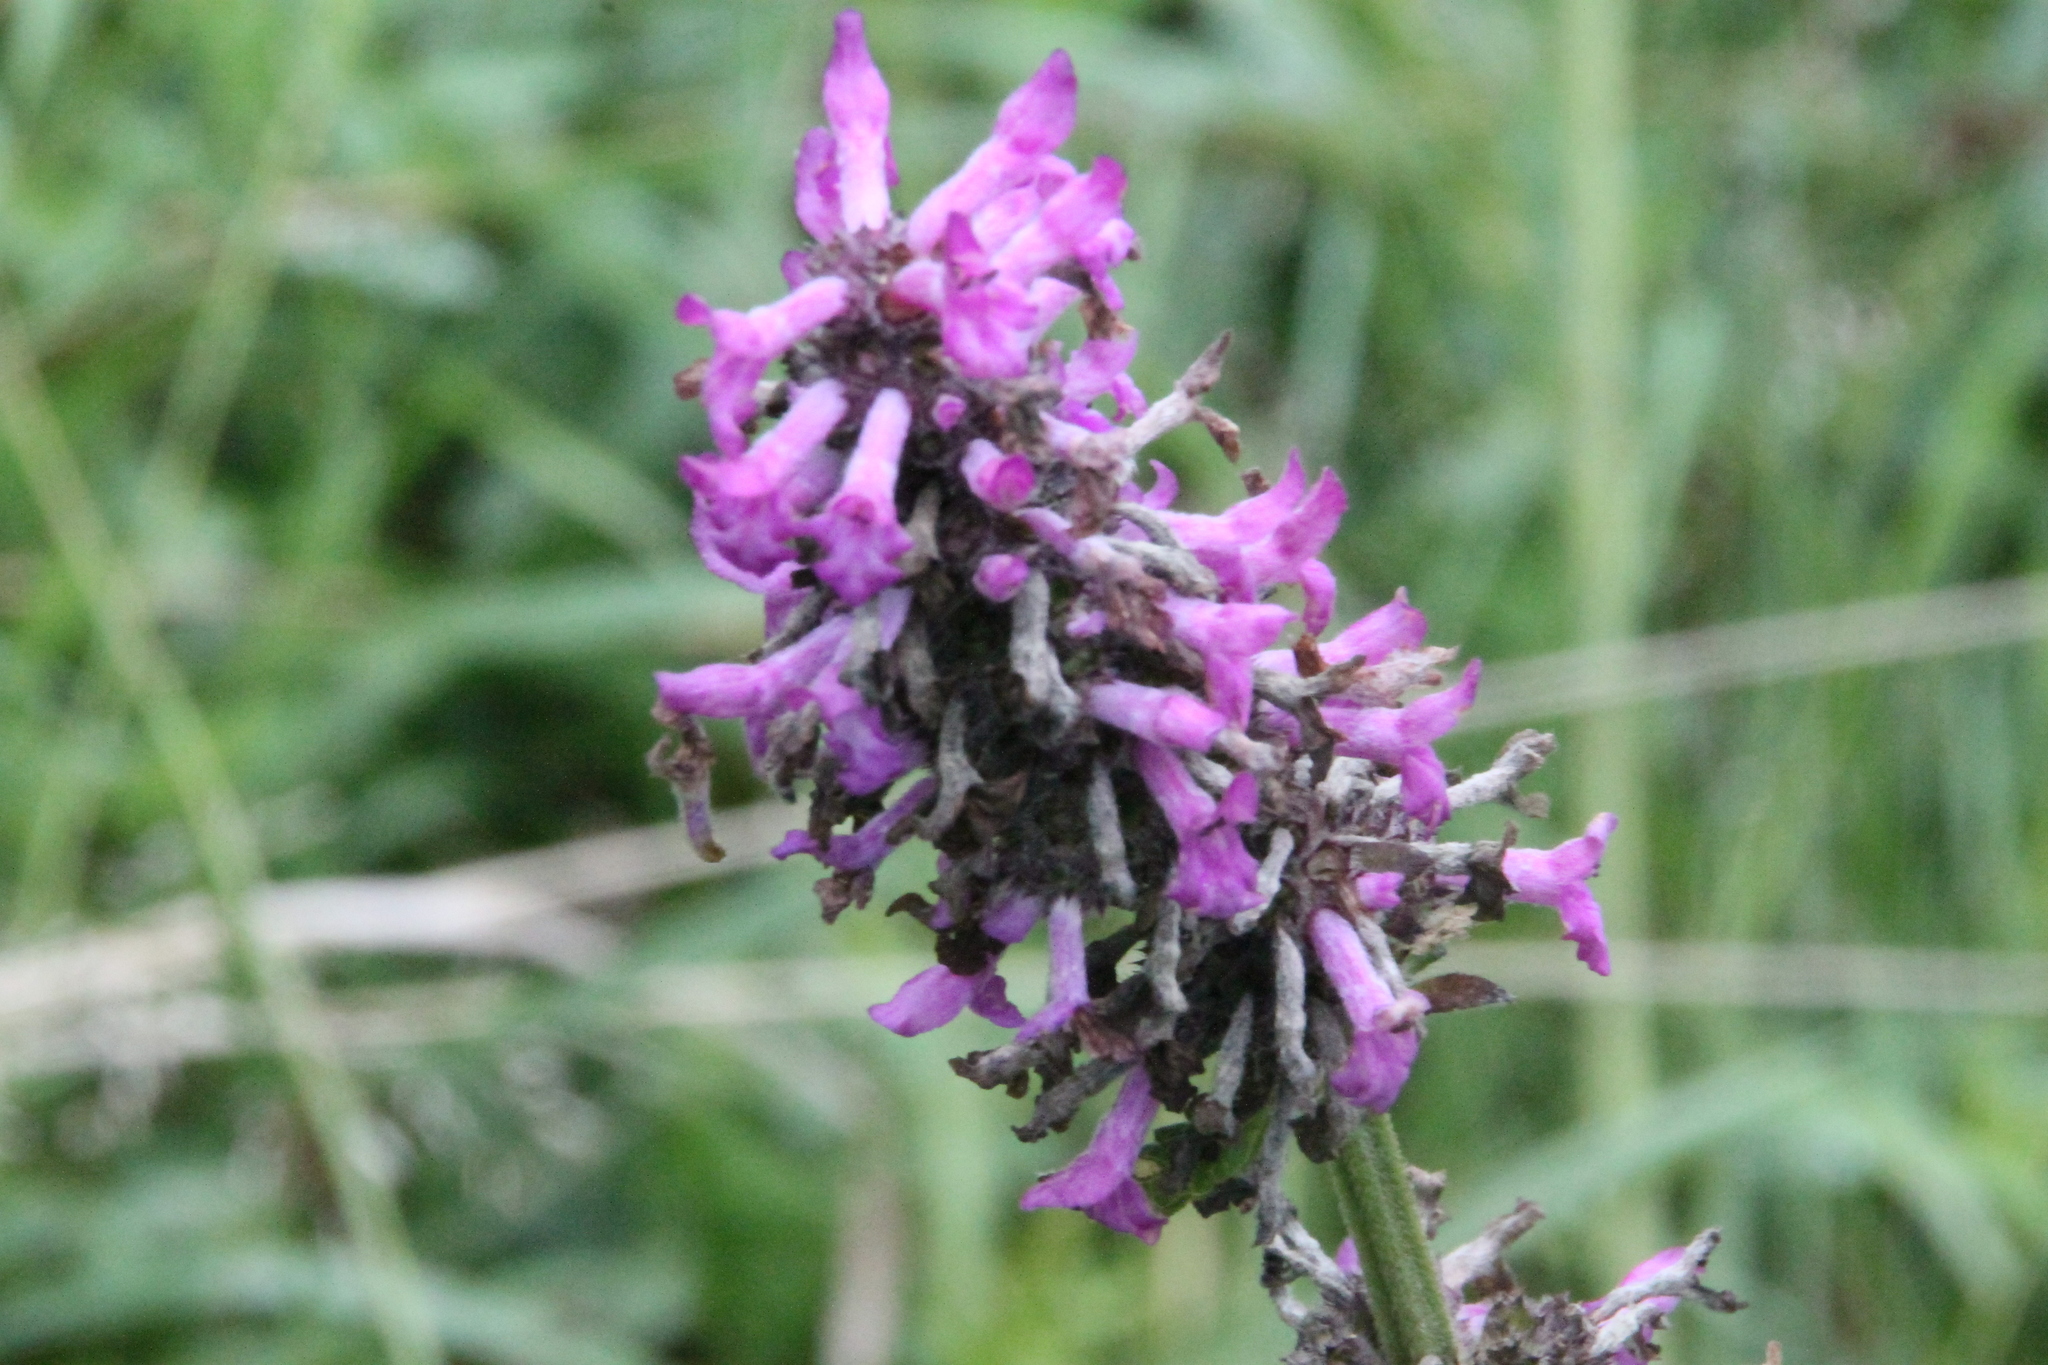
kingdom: Plantae
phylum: Tracheophyta
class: Magnoliopsida
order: Lamiales
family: Lamiaceae
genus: Betonica
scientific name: Betonica officinalis
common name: Bishop's-wort
